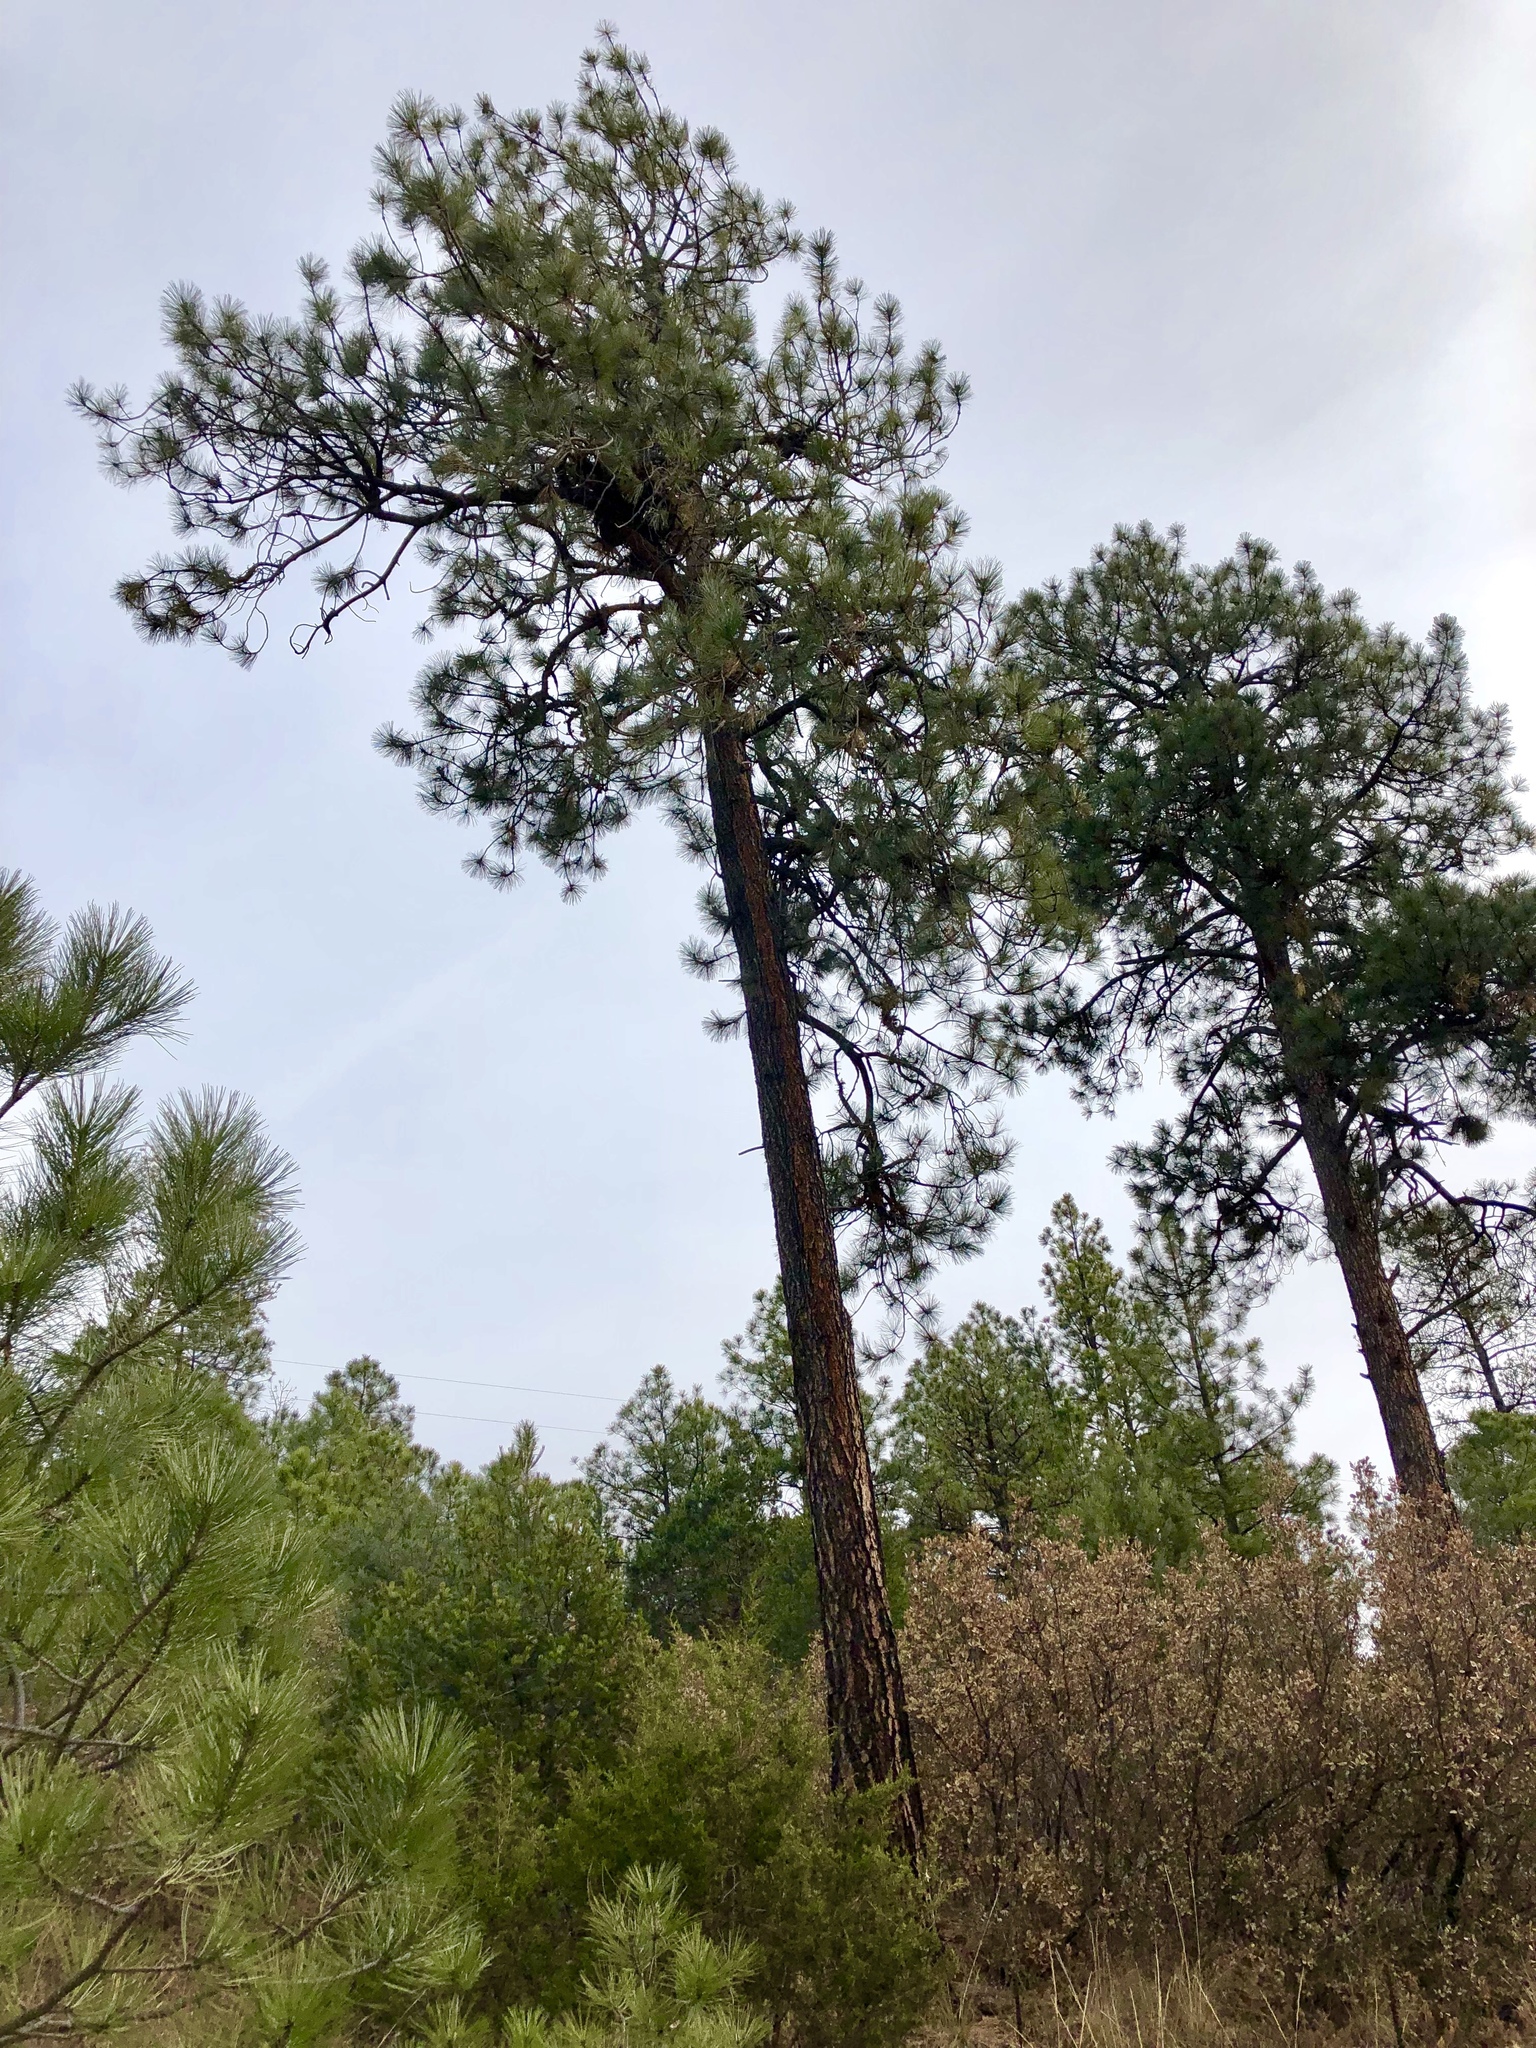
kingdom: Plantae
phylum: Tracheophyta
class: Pinopsida
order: Pinales
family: Pinaceae
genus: Pinus
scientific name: Pinus ponderosa
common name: Western yellow-pine
